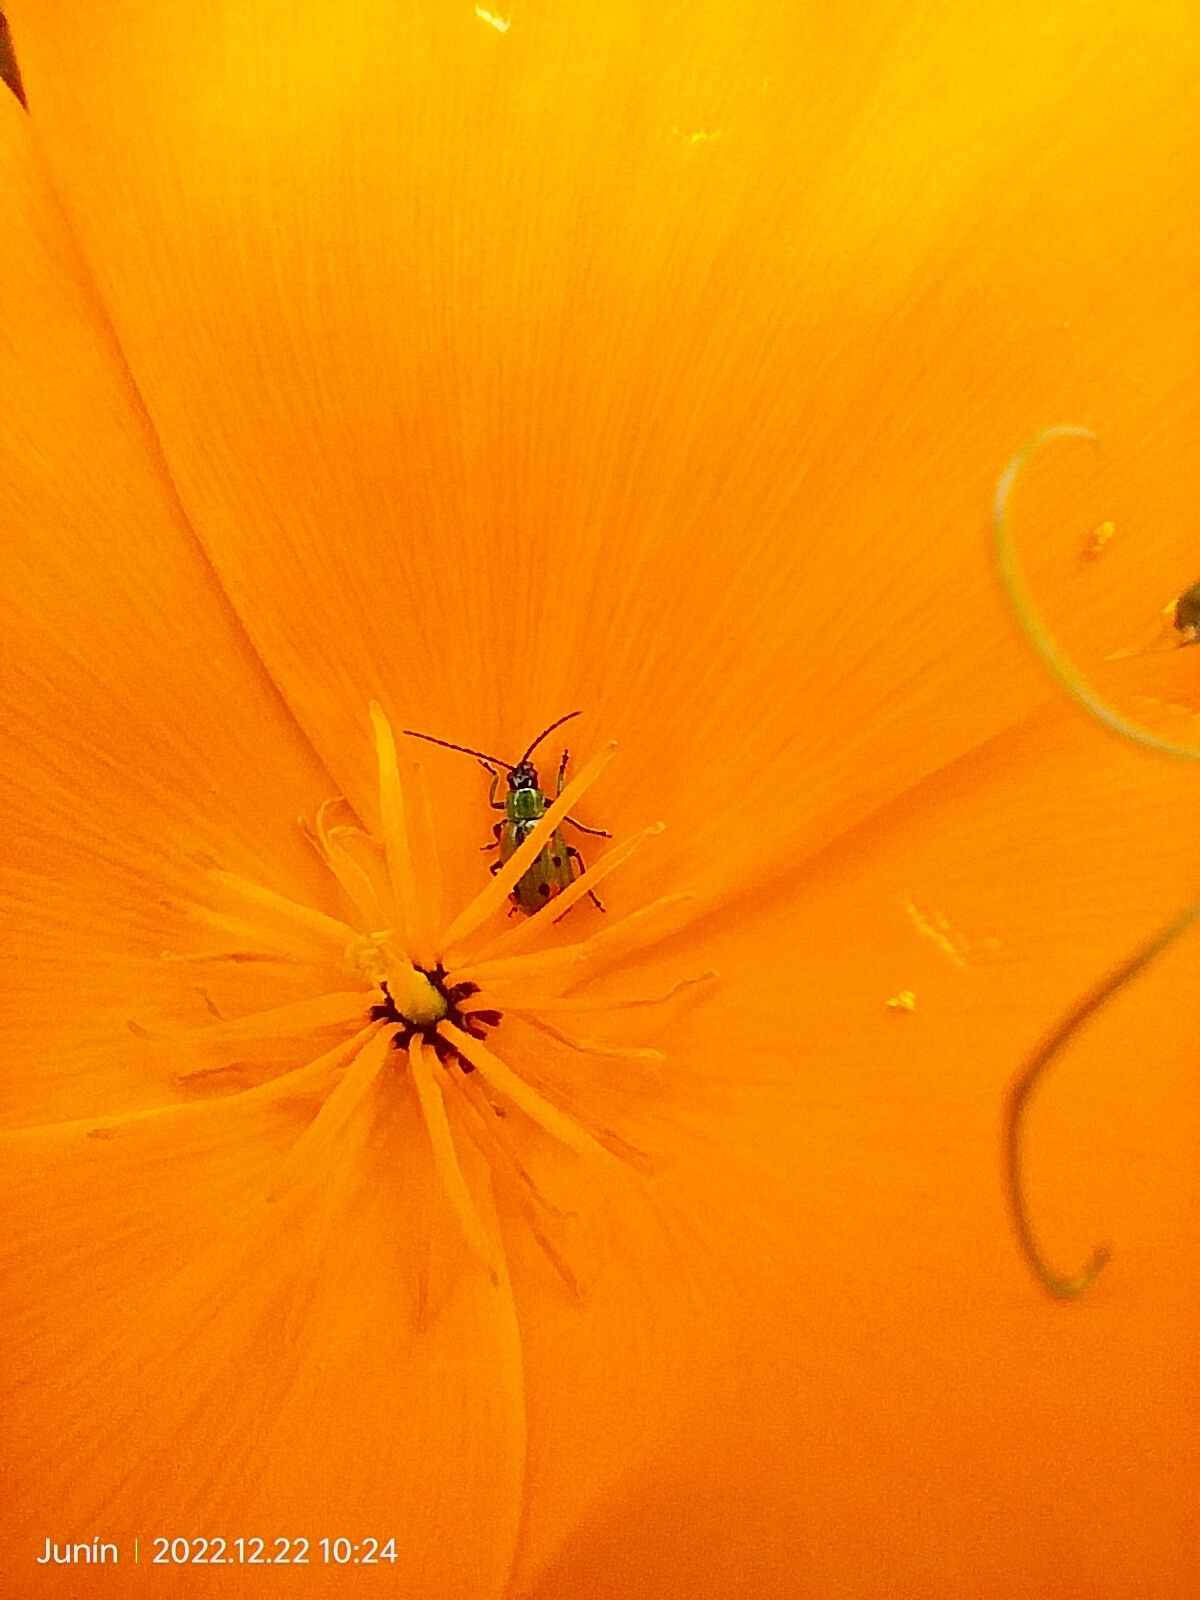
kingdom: Animalia
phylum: Arthropoda
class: Insecta
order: Coleoptera
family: Chrysomelidae
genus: Diabrotica
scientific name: Diabrotica decempunctata
